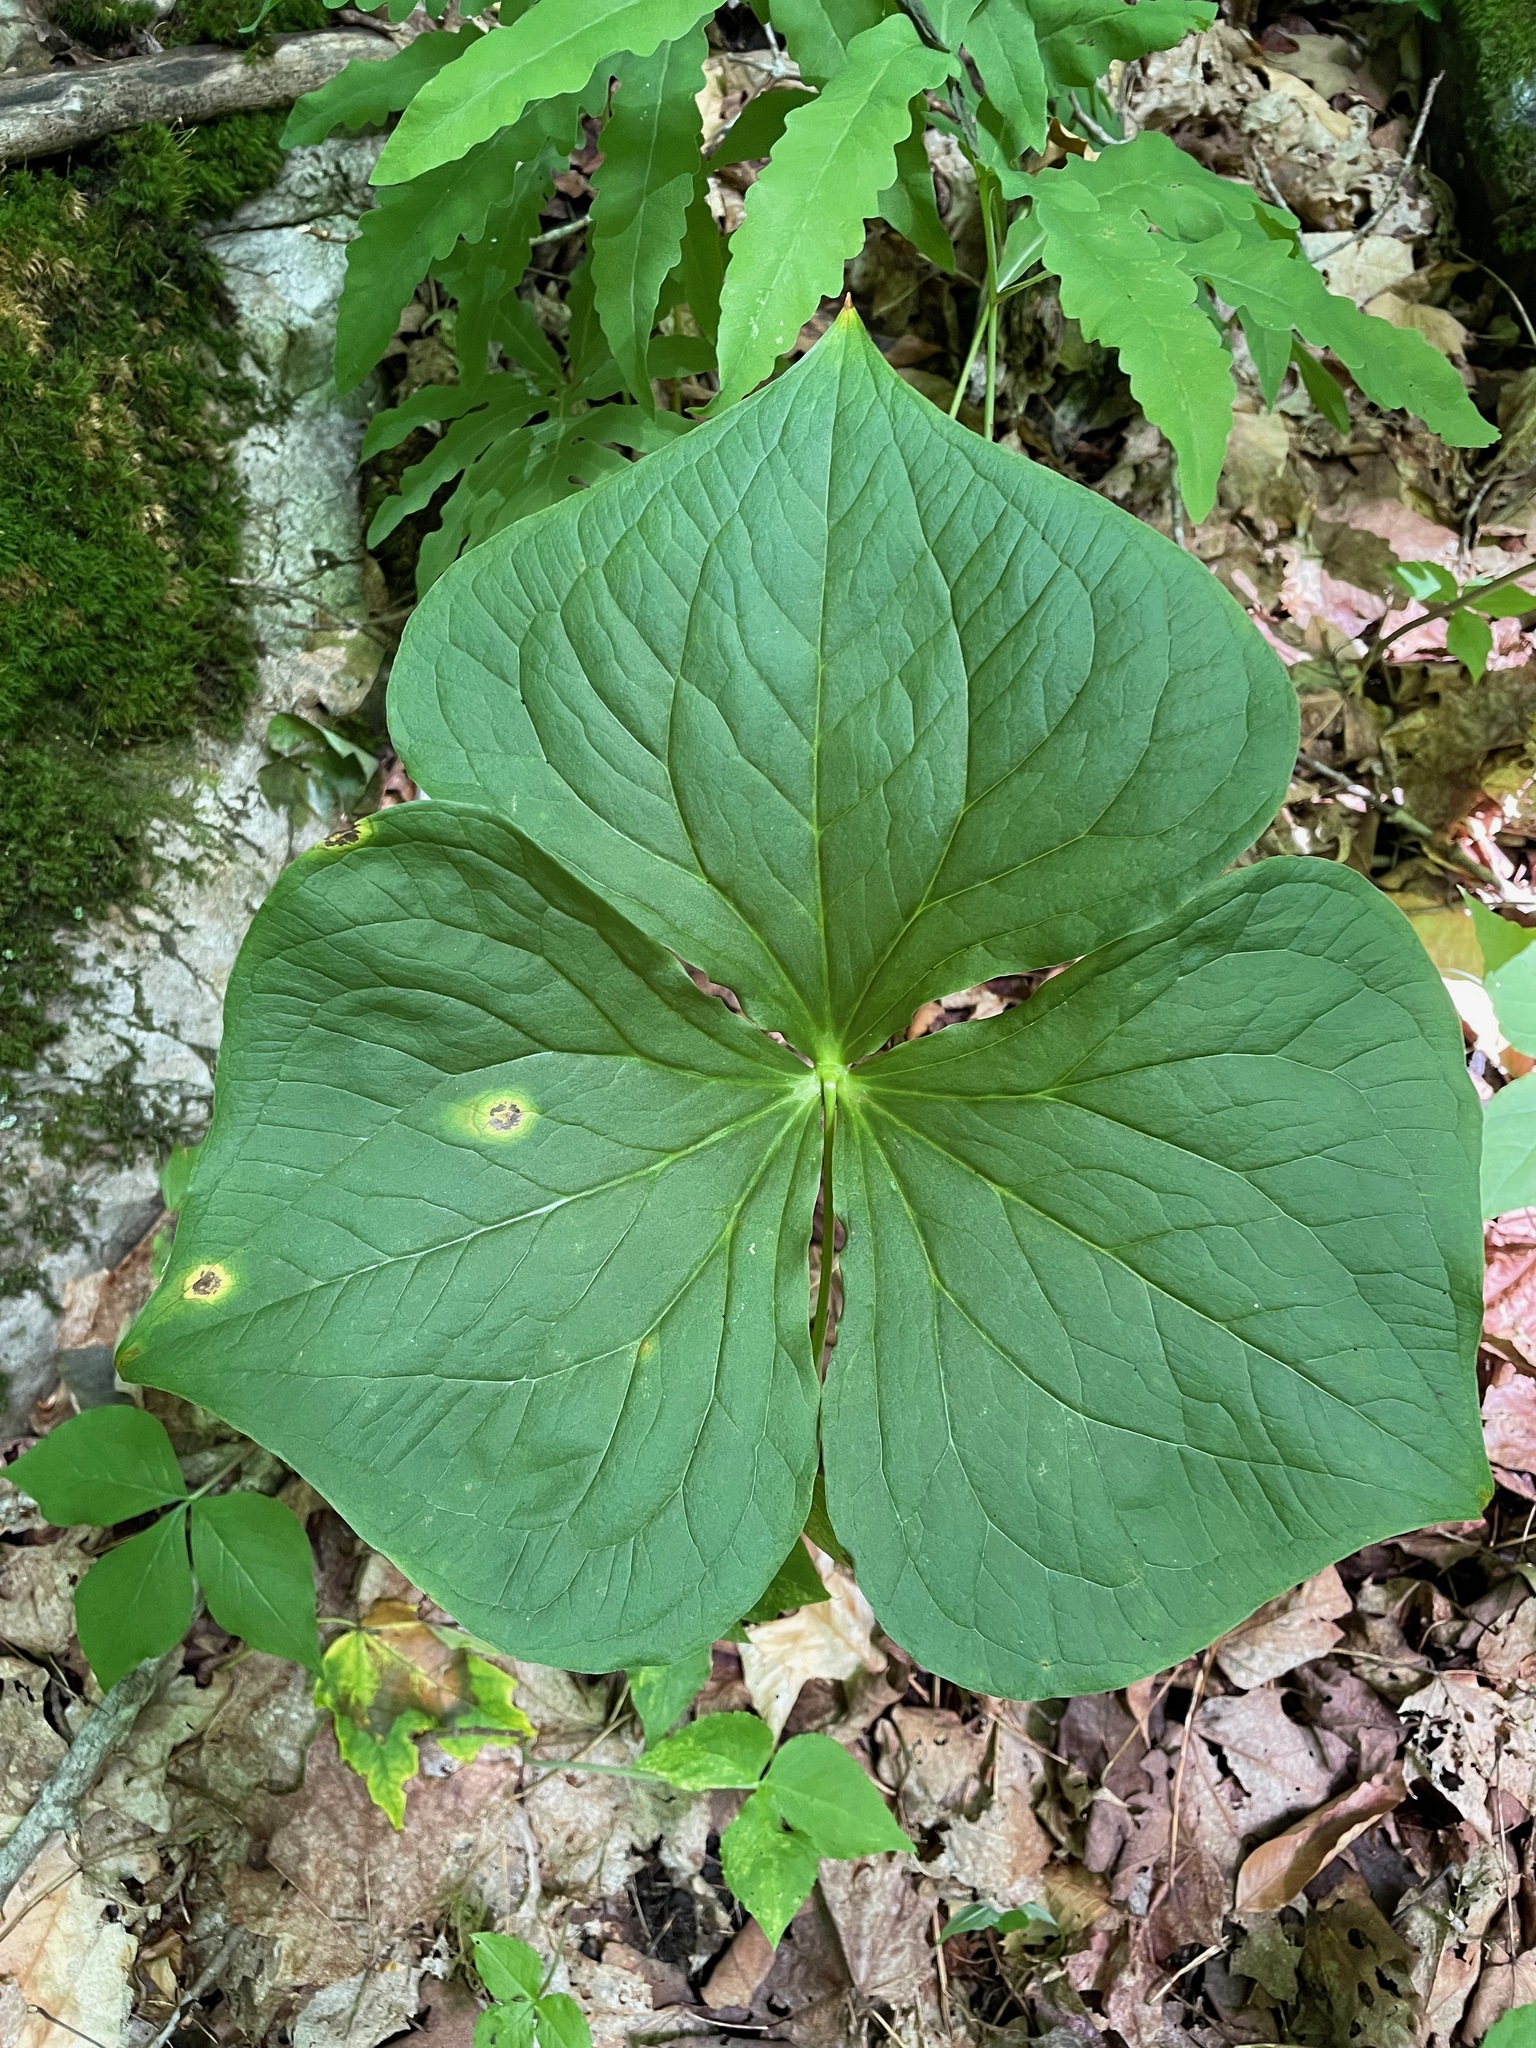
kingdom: Plantae
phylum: Tracheophyta
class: Liliopsida
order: Liliales
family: Melanthiaceae
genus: Trillium
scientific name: Trillium erectum
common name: Purple trillium
